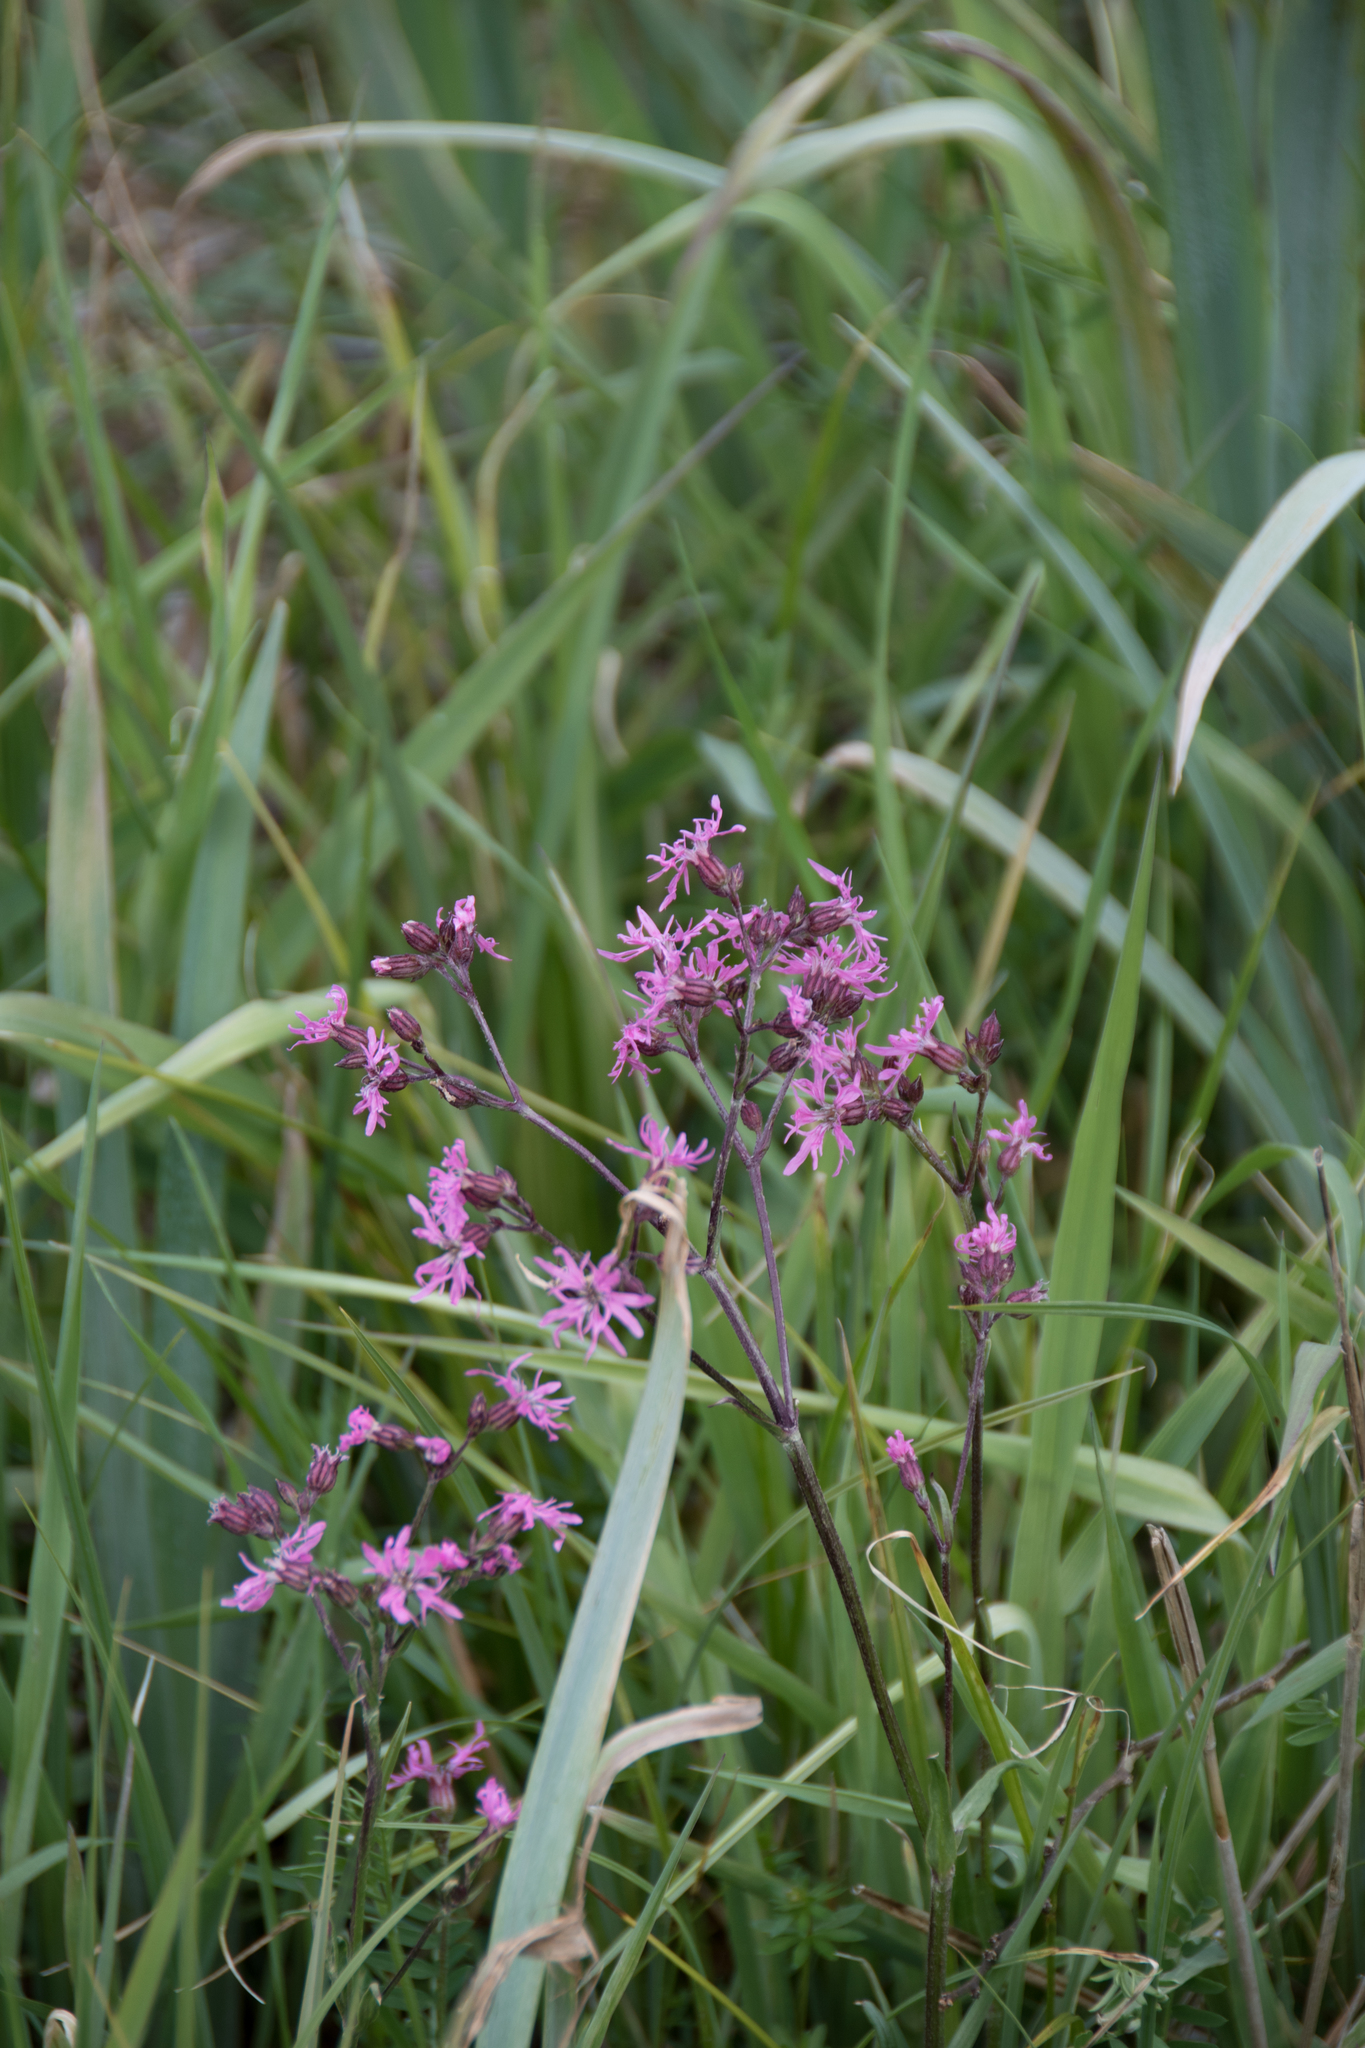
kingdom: Plantae
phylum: Tracheophyta
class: Magnoliopsida
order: Caryophyllales
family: Caryophyllaceae
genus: Silene
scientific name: Silene flos-cuculi
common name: Ragged-robin
